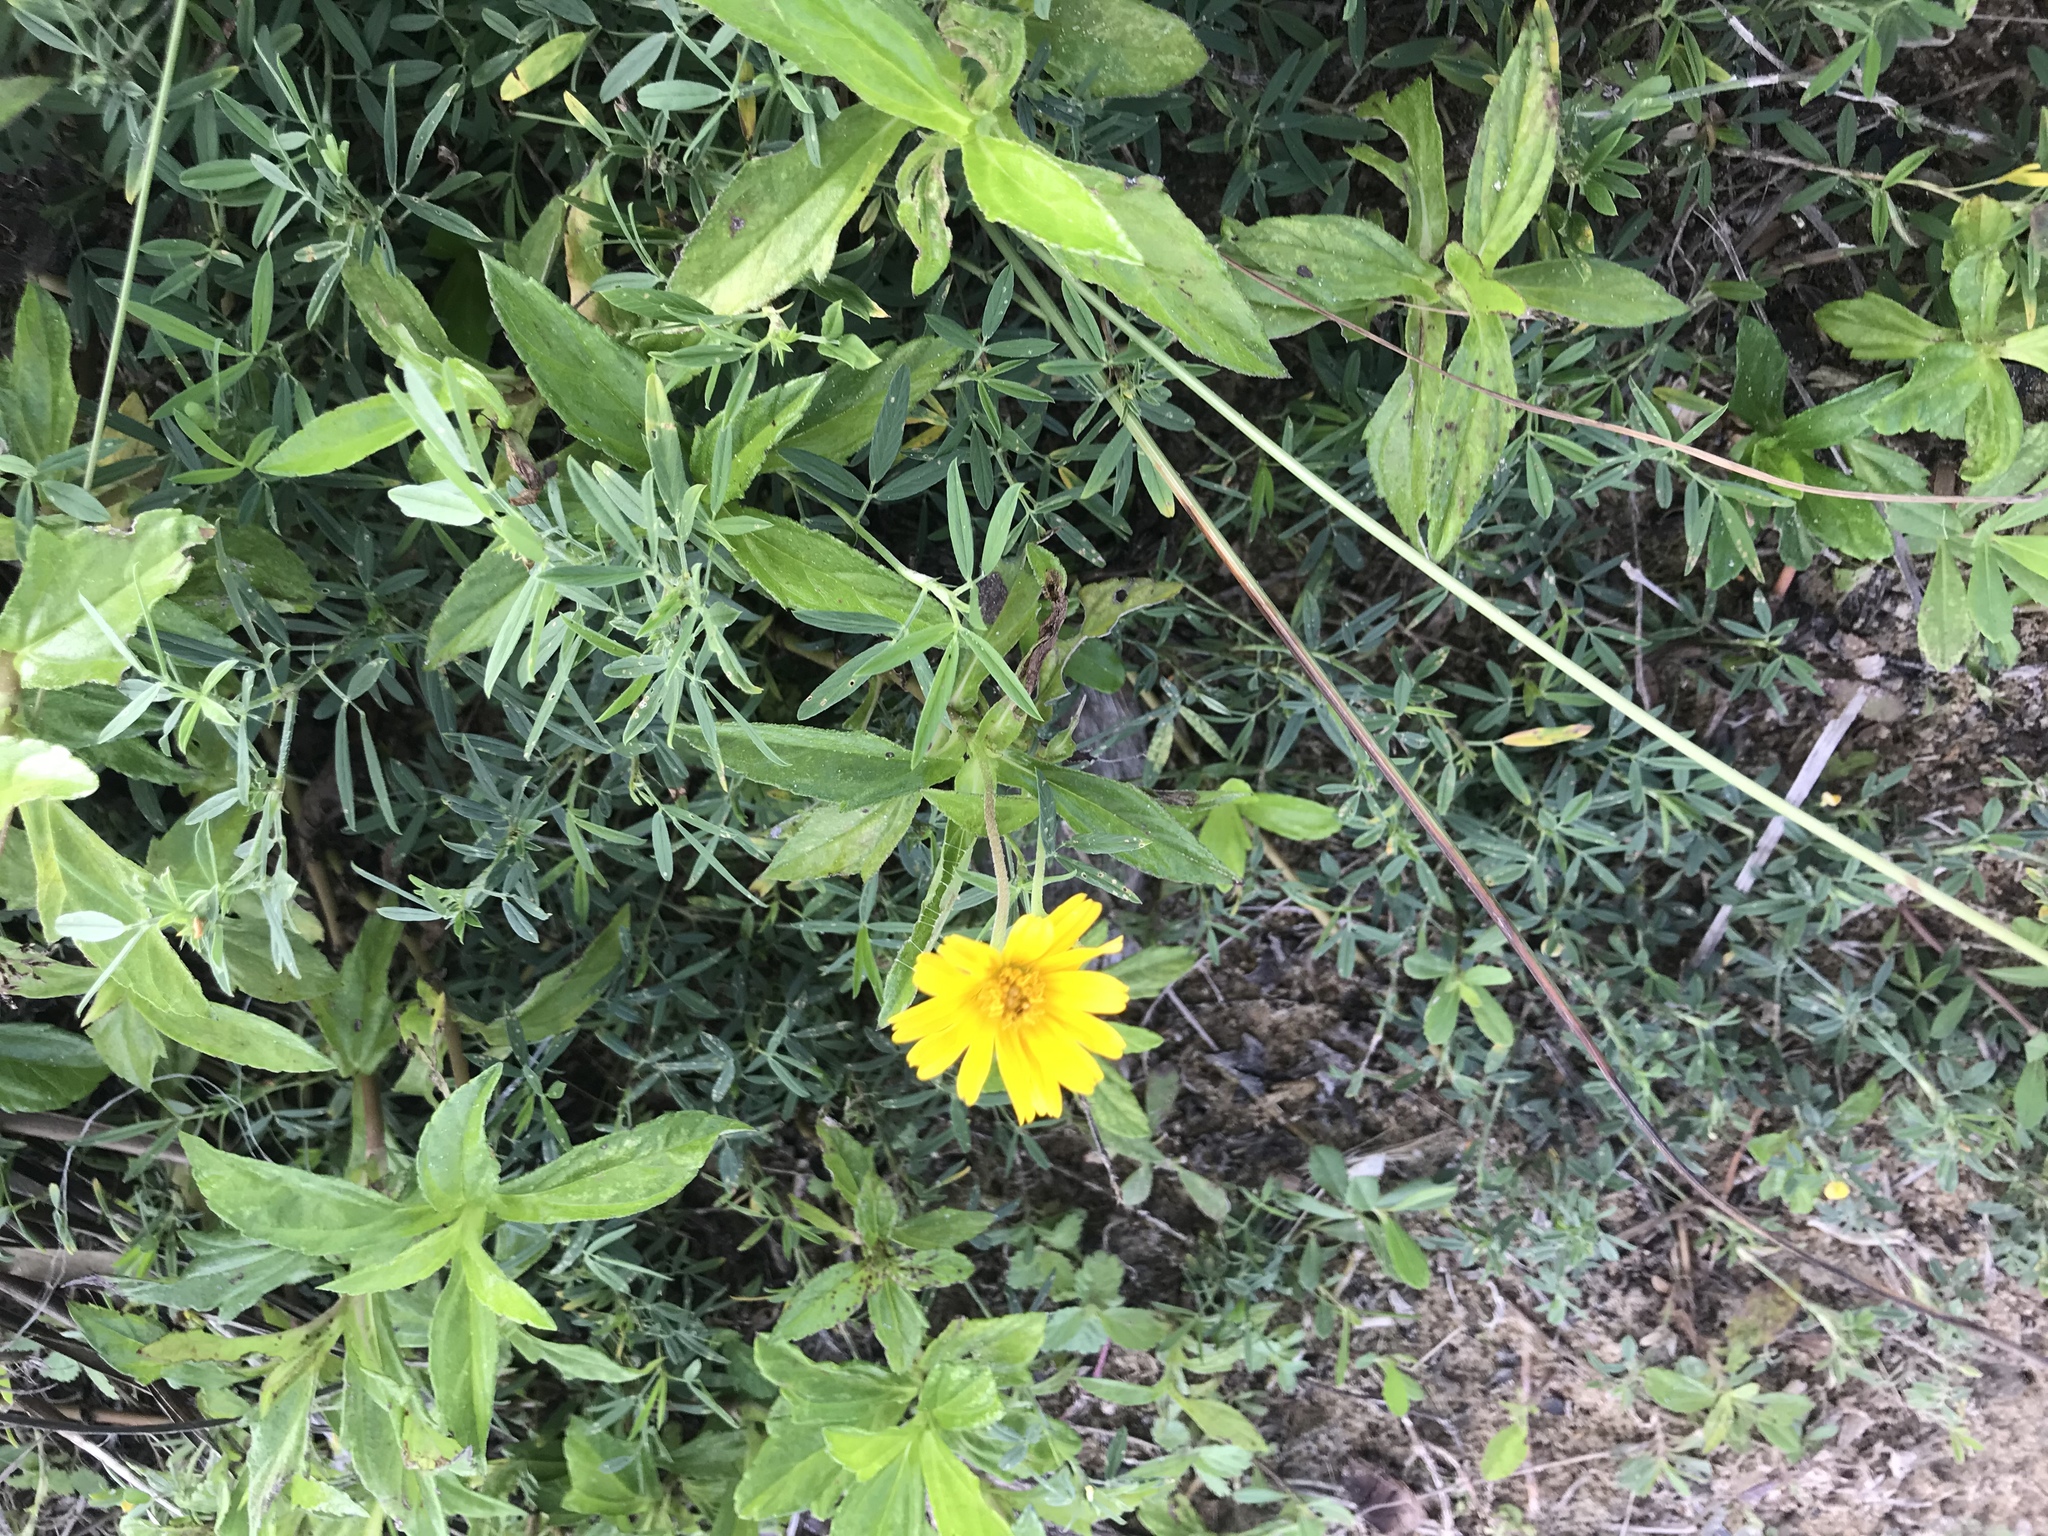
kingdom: Plantae
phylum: Tracheophyta
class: Magnoliopsida
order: Asterales
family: Asteraceae
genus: Sphagneticola
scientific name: Sphagneticola trilobata
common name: Bay biscayne creeping-oxeye
